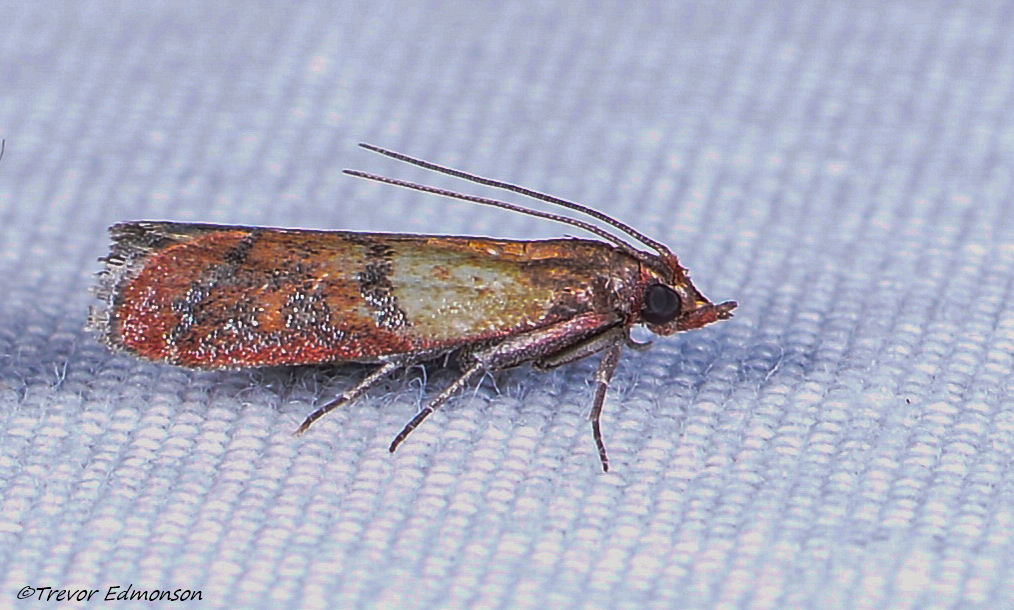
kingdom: Animalia
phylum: Arthropoda
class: Insecta
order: Lepidoptera
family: Pyralidae
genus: Plodia
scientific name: Plodia interpunctella
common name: Indian meal moth
